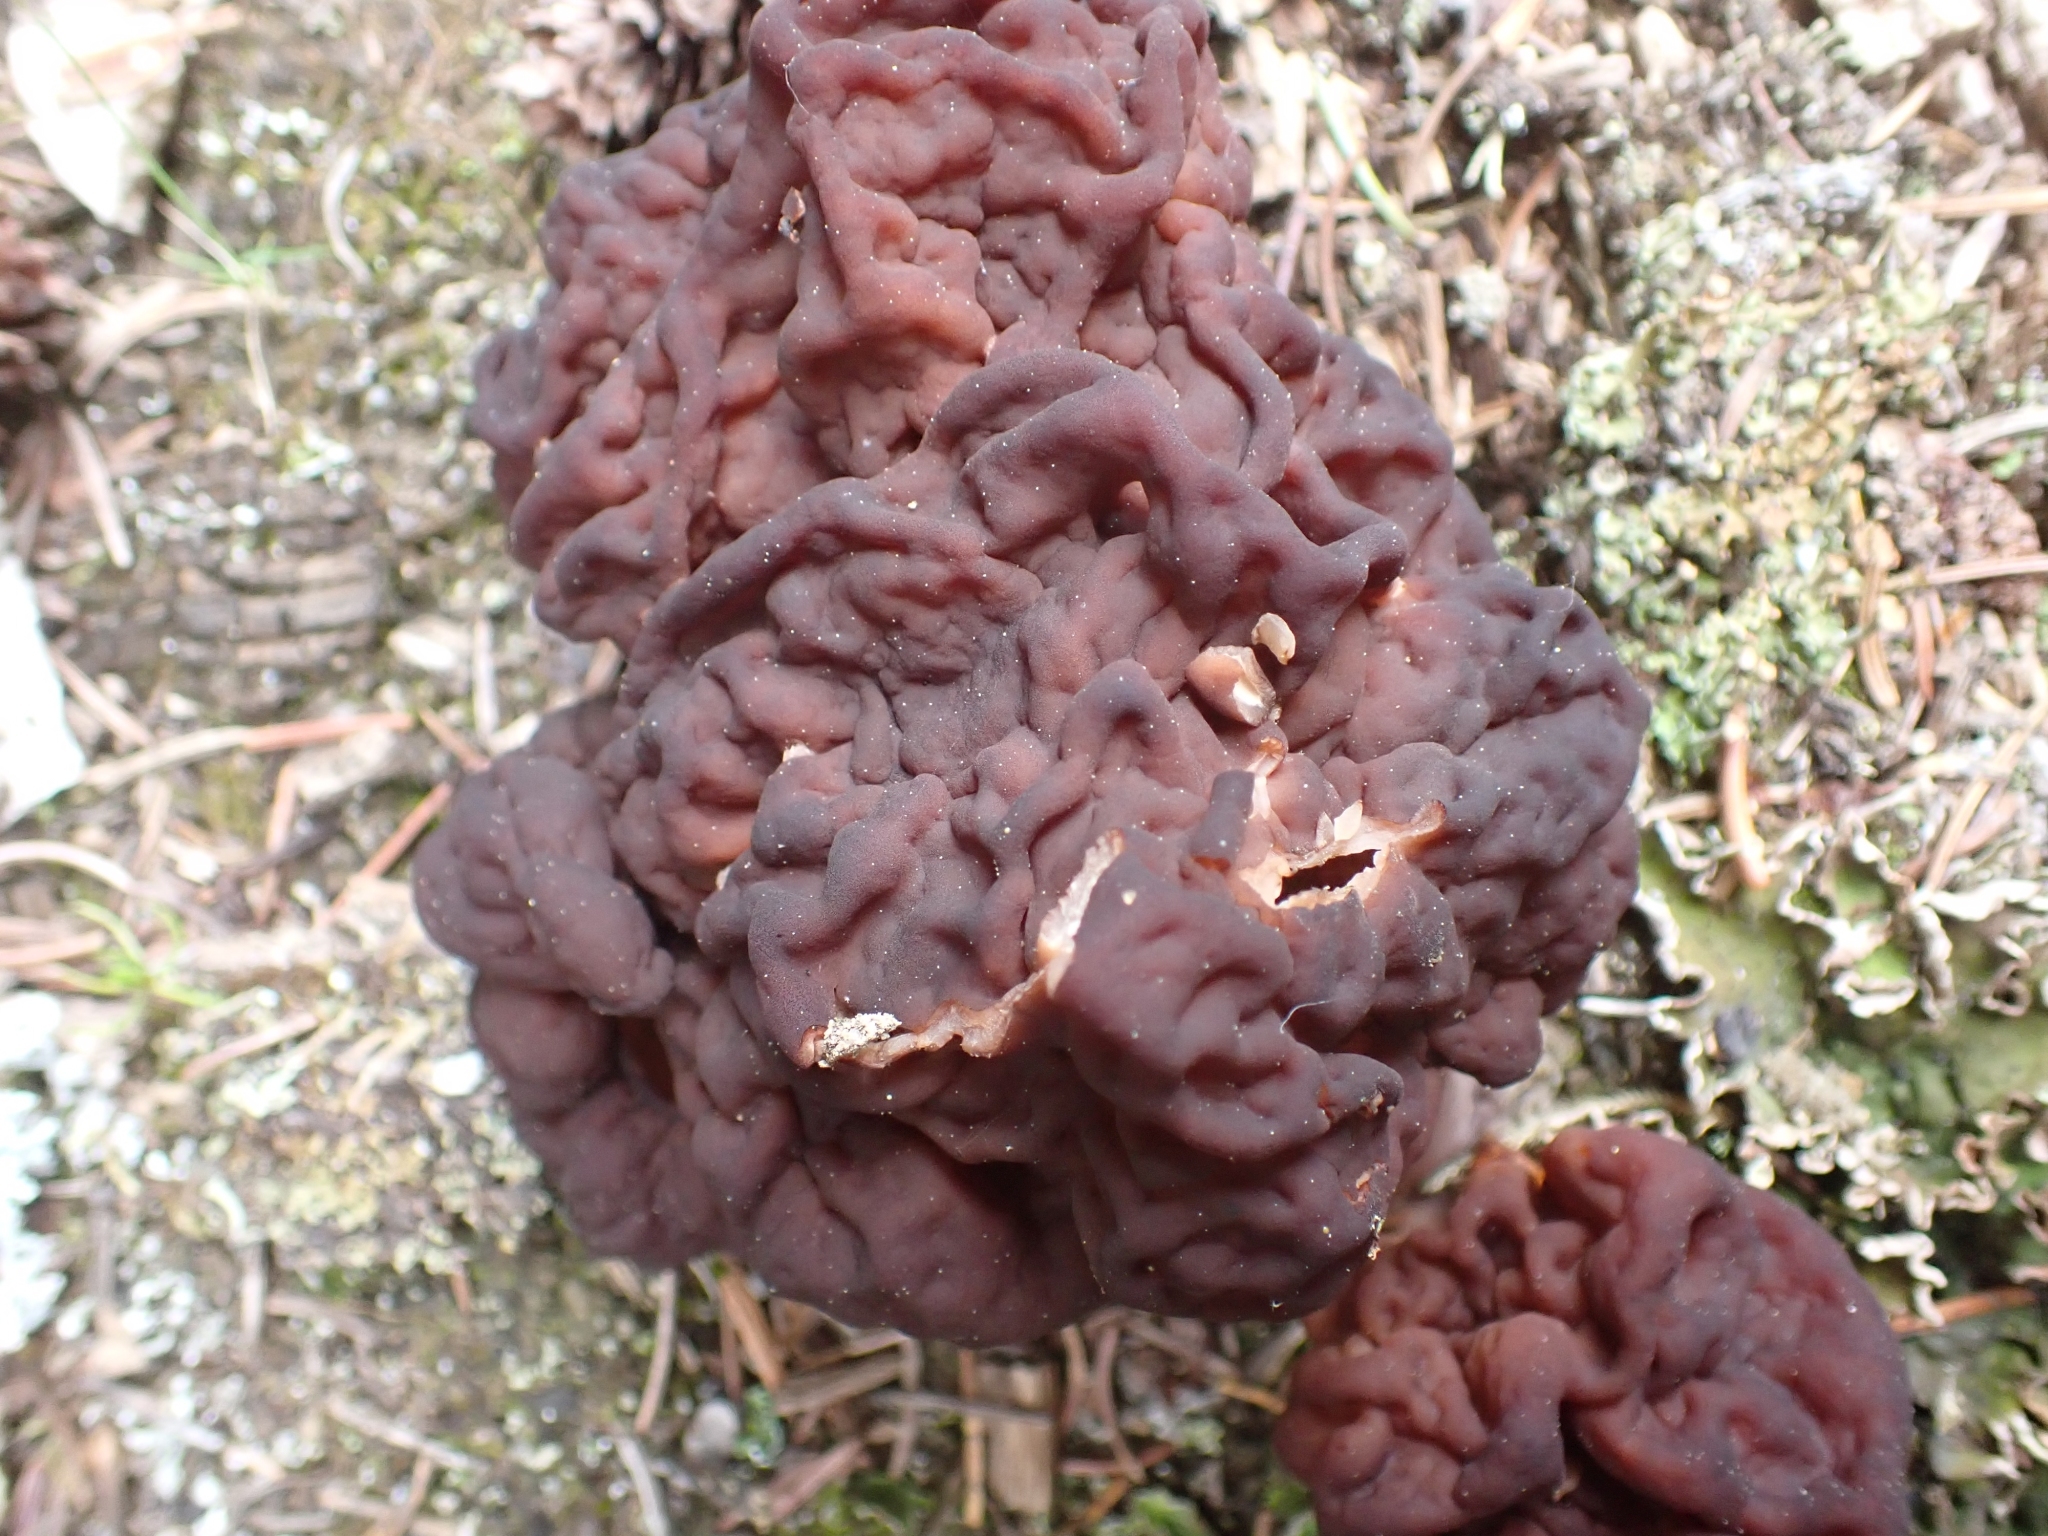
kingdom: Fungi
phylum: Ascomycota
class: Pezizomycetes
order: Pezizales
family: Discinaceae
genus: Gyromitra
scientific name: Gyromitra esculenta
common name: False morel
